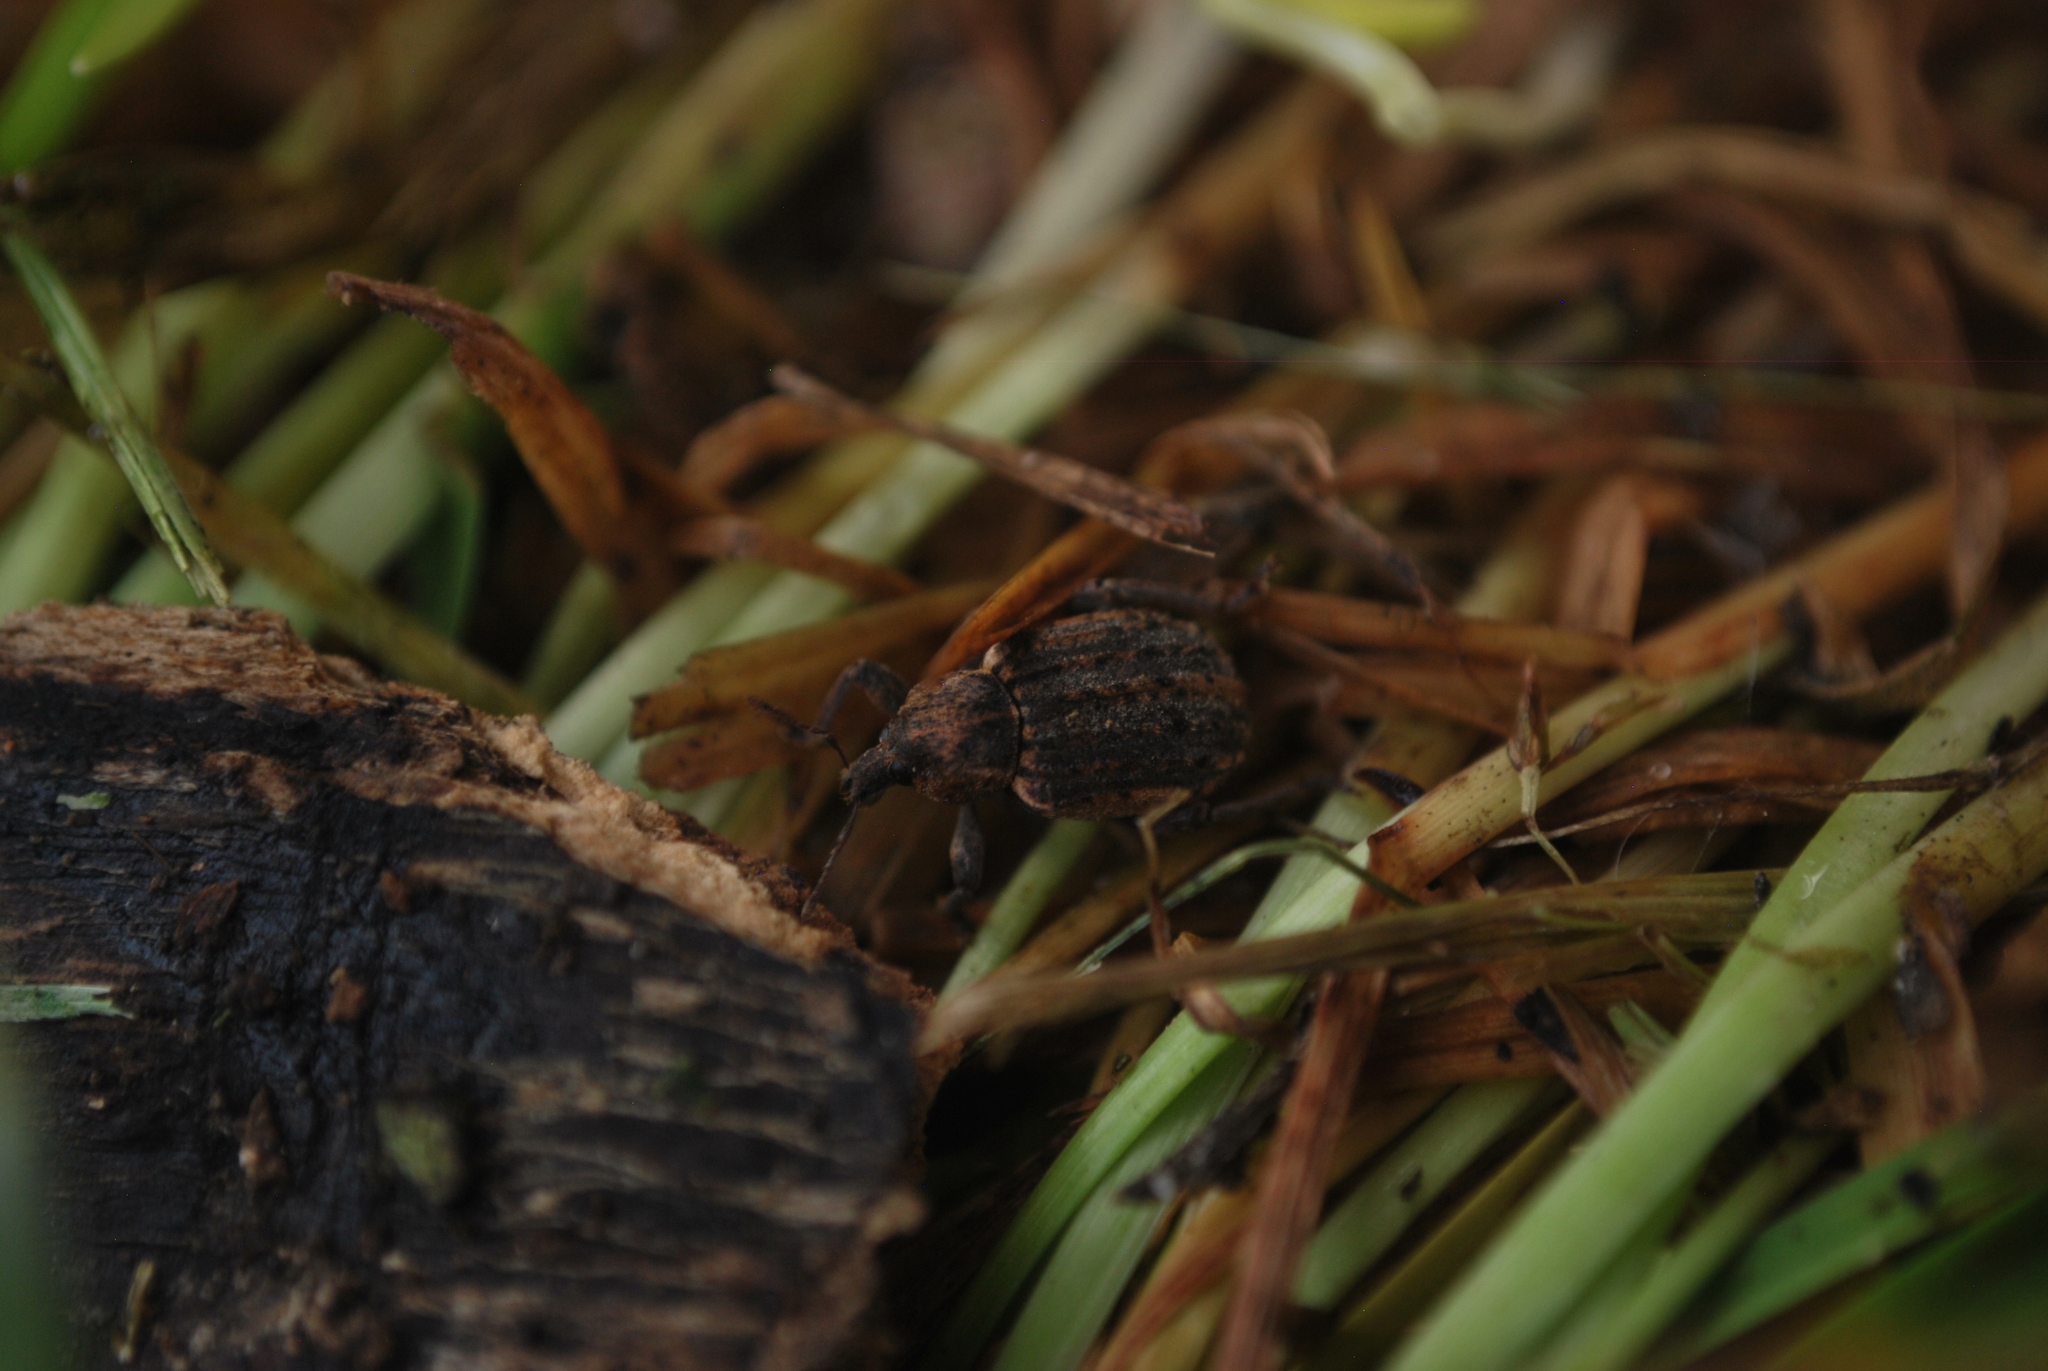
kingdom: Animalia
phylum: Arthropoda
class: Insecta
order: Coleoptera
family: Curculionidae
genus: Brachypera
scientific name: Brachypera zoilus
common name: Clover leaf weevil
